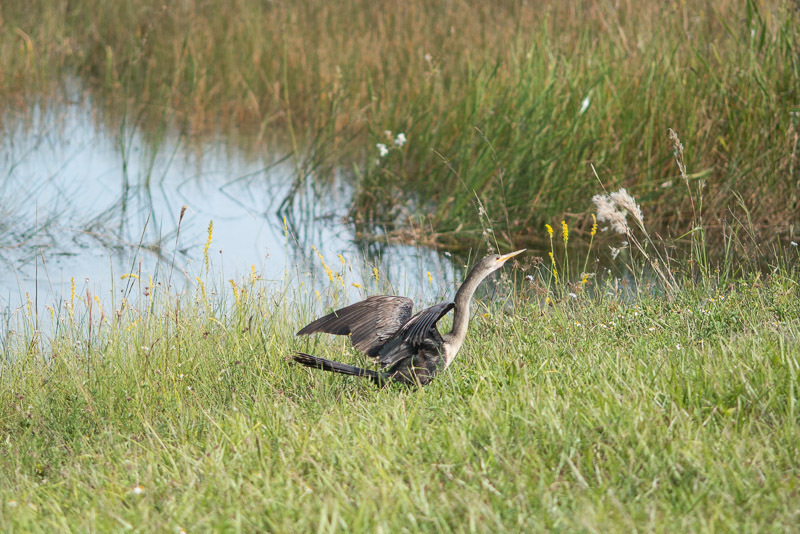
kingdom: Animalia
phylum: Chordata
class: Aves
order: Suliformes
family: Anhingidae
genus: Anhinga
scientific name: Anhinga anhinga
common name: Anhinga
